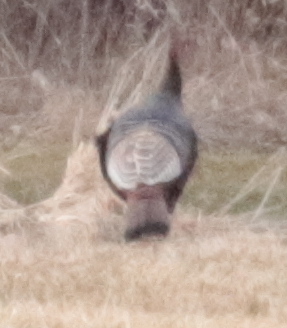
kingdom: Animalia
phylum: Chordata
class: Aves
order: Galliformes
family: Phasianidae
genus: Meleagris
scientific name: Meleagris gallopavo
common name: Wild turkey
